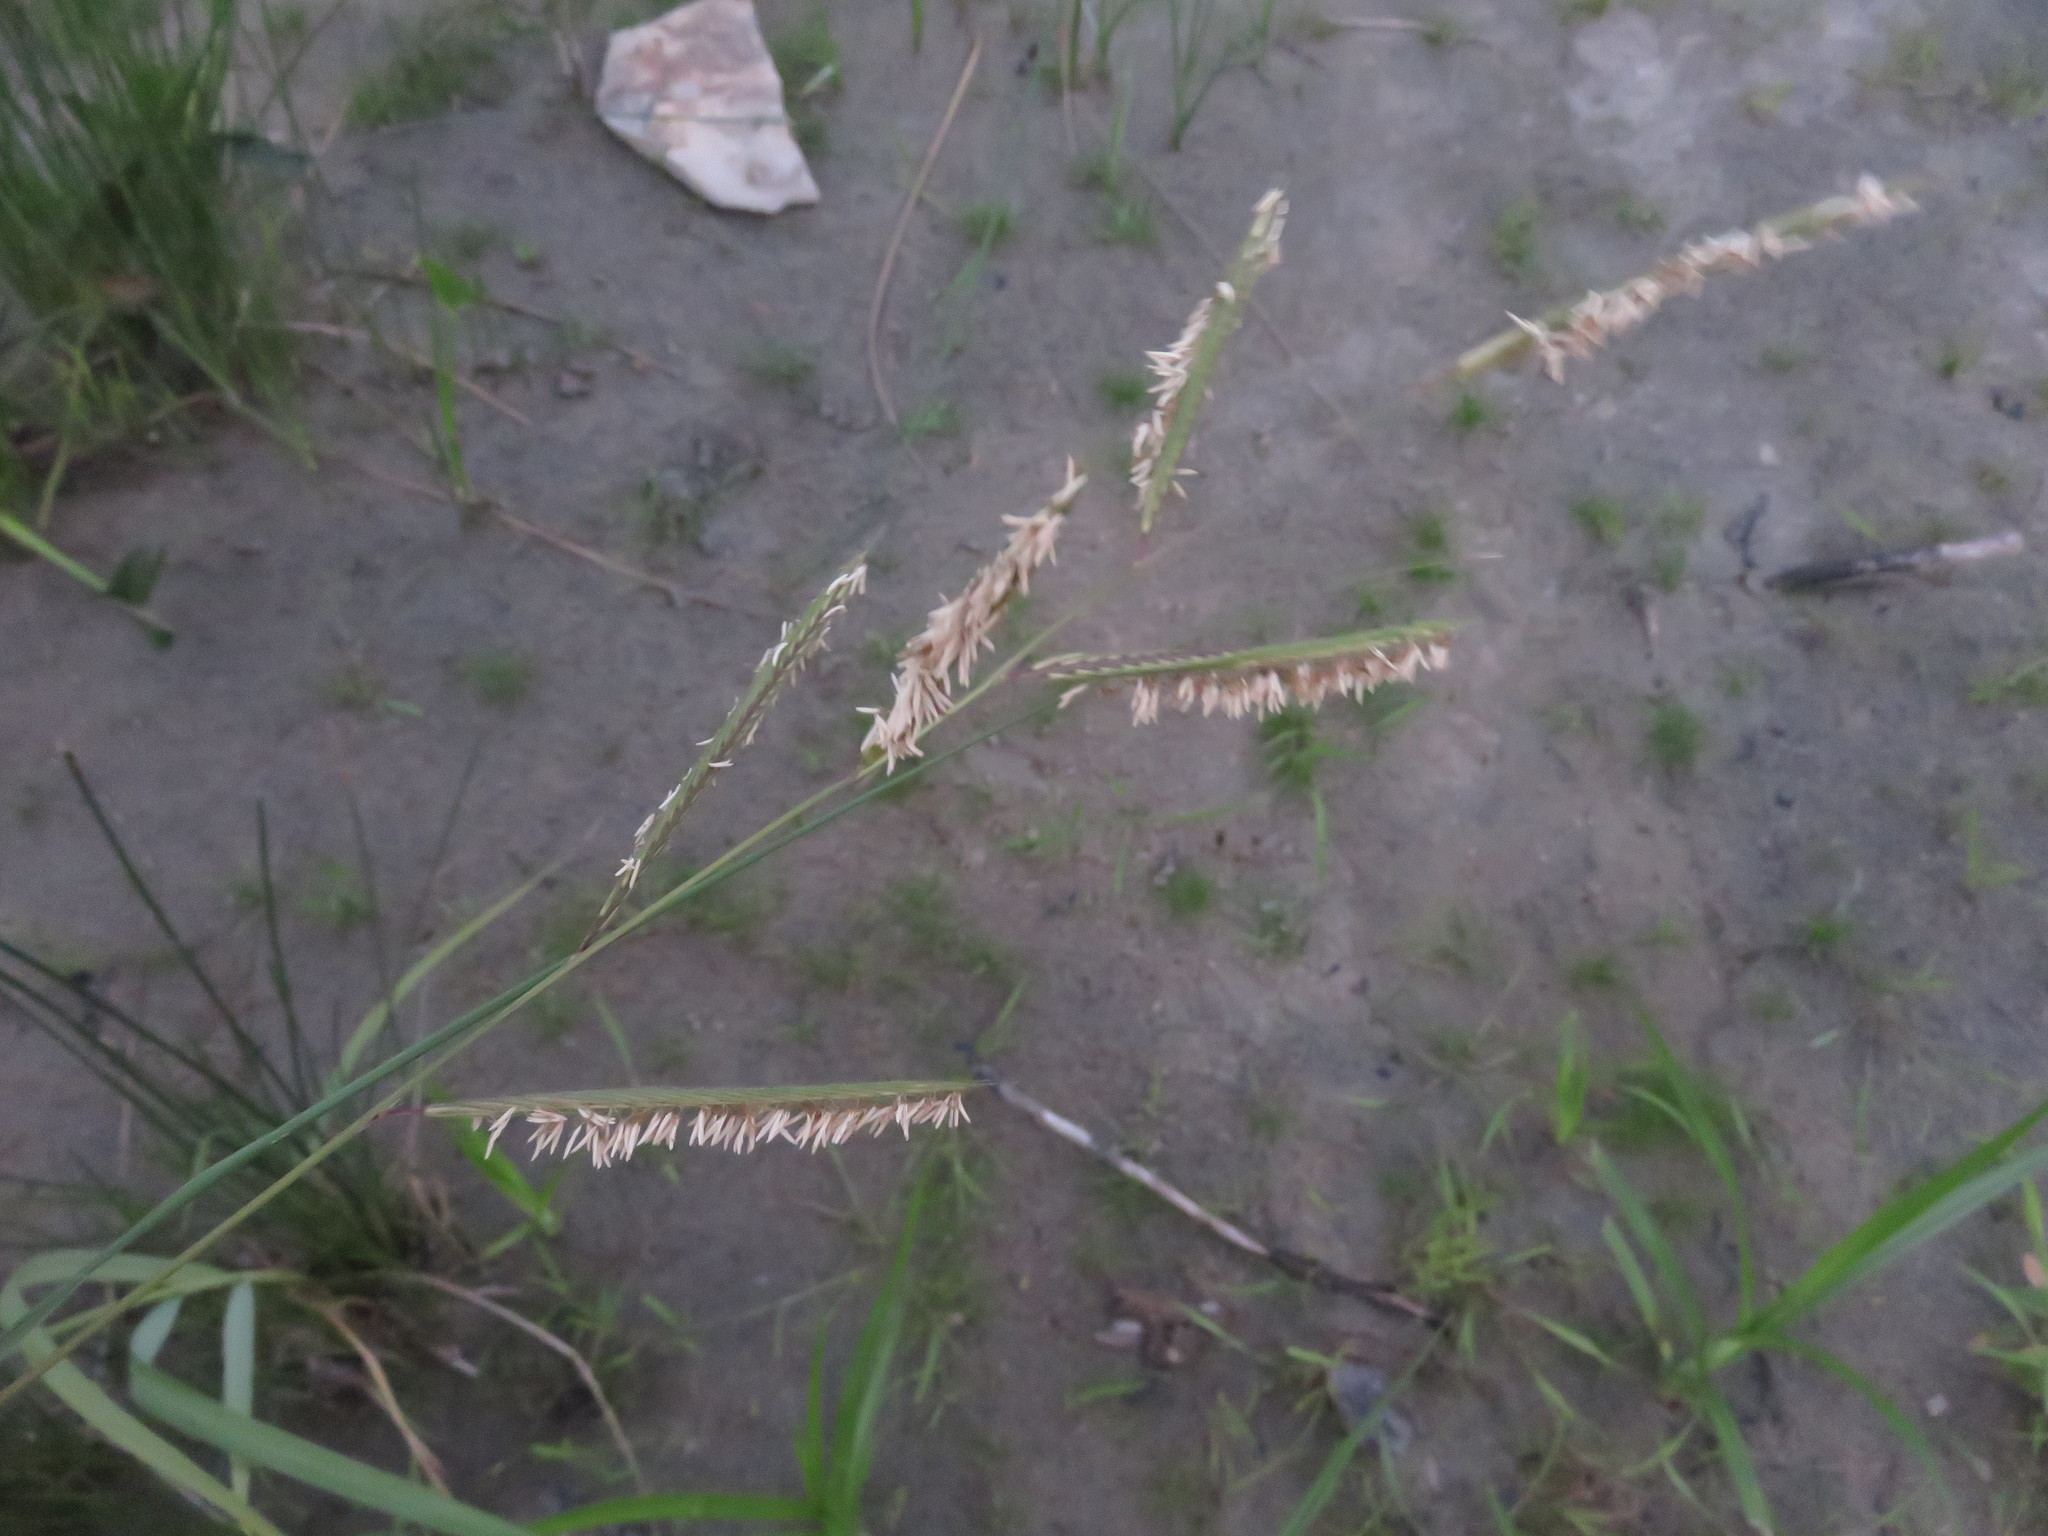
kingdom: Plantae
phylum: Tracheophyta
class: Liliopsida
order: Poales
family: Poaceae
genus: Sporobolus
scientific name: Sporobolus michauxianus
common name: Freshwater cordgrass
